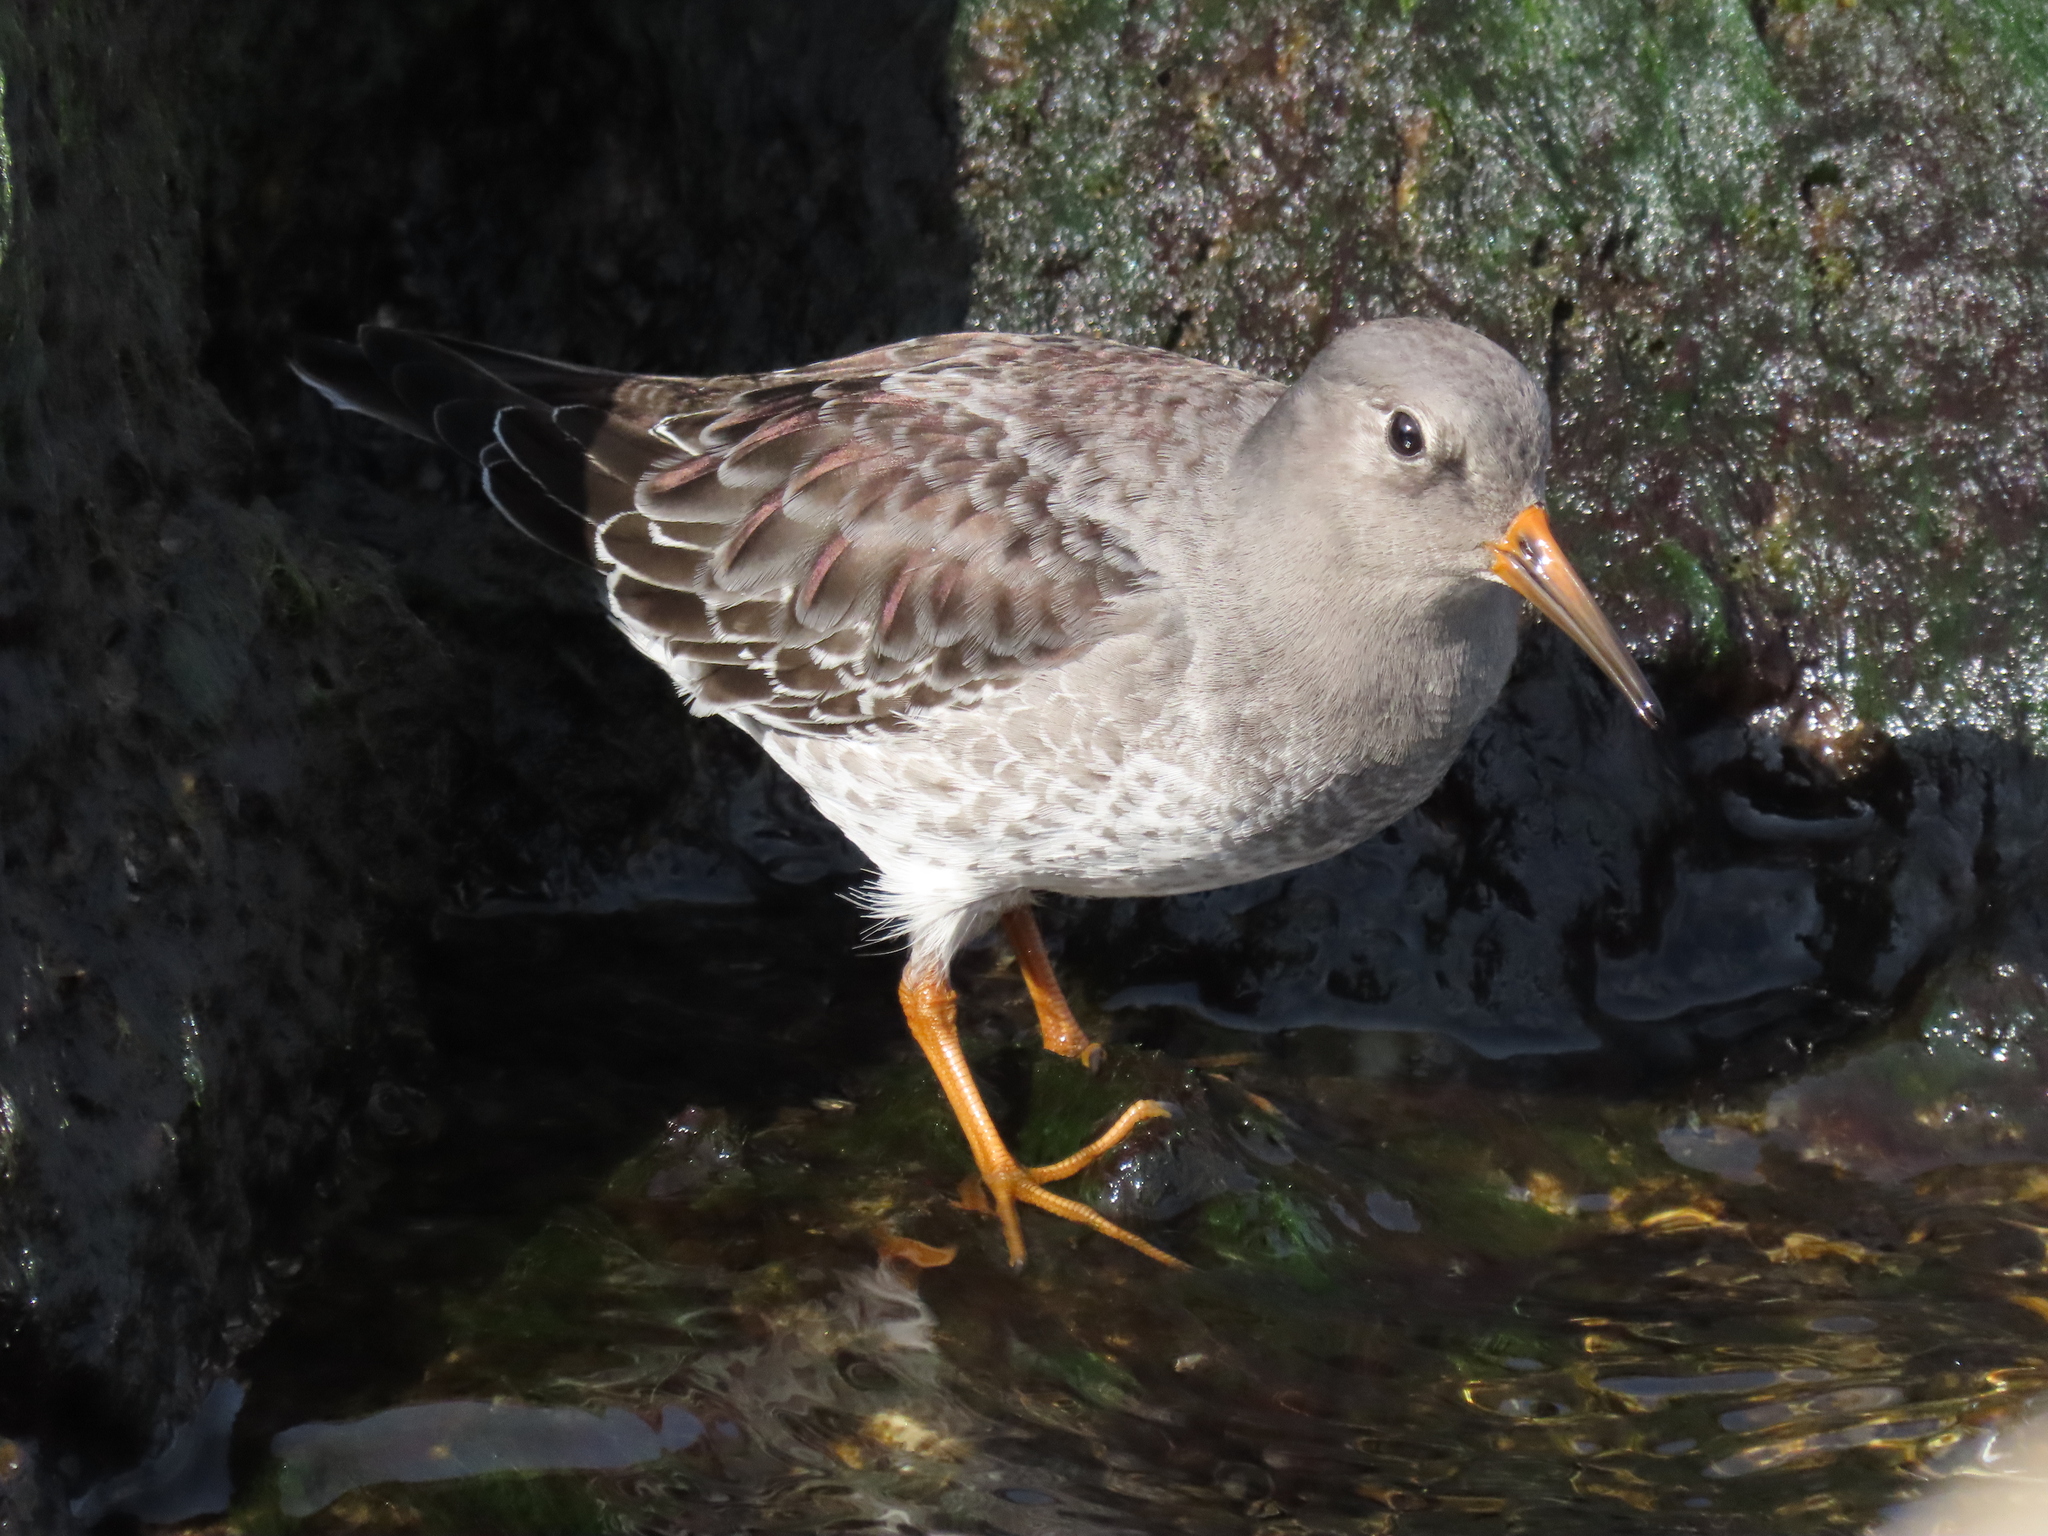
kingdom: Animalia
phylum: Chordata
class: Aves
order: Charadriiformes
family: Scolopacidae
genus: Calidris
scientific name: Calidris maritima
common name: Purple sandpiper
